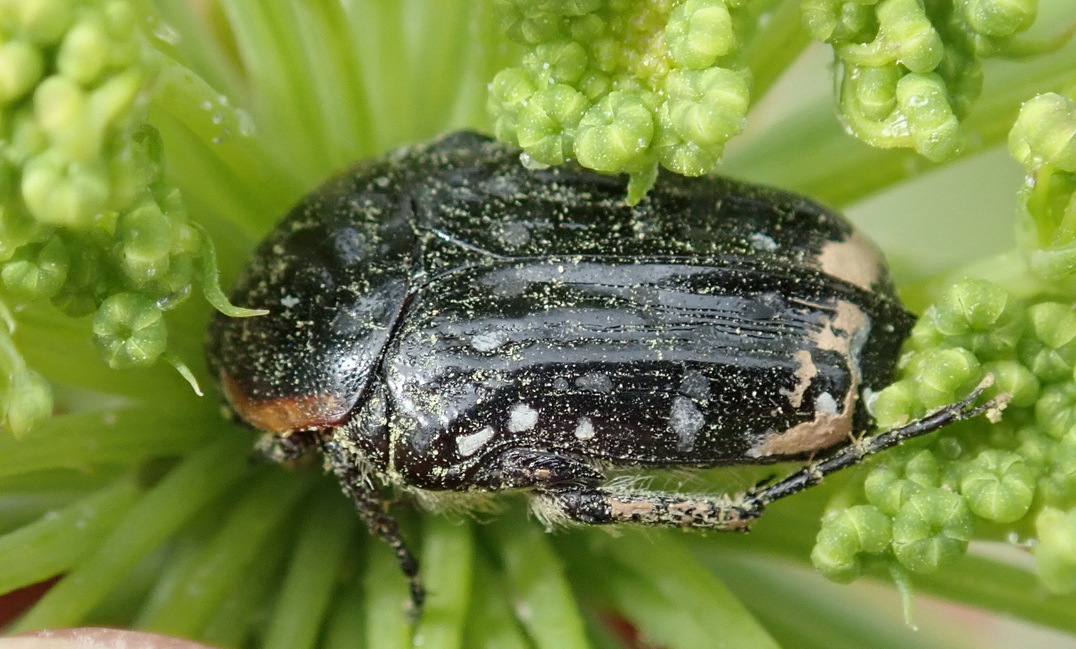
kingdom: Animalia
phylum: Arthropoda
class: Insecta
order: Coleoptera
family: Scarabaeidae
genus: Oxythyrea
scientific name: Oxythyrea
